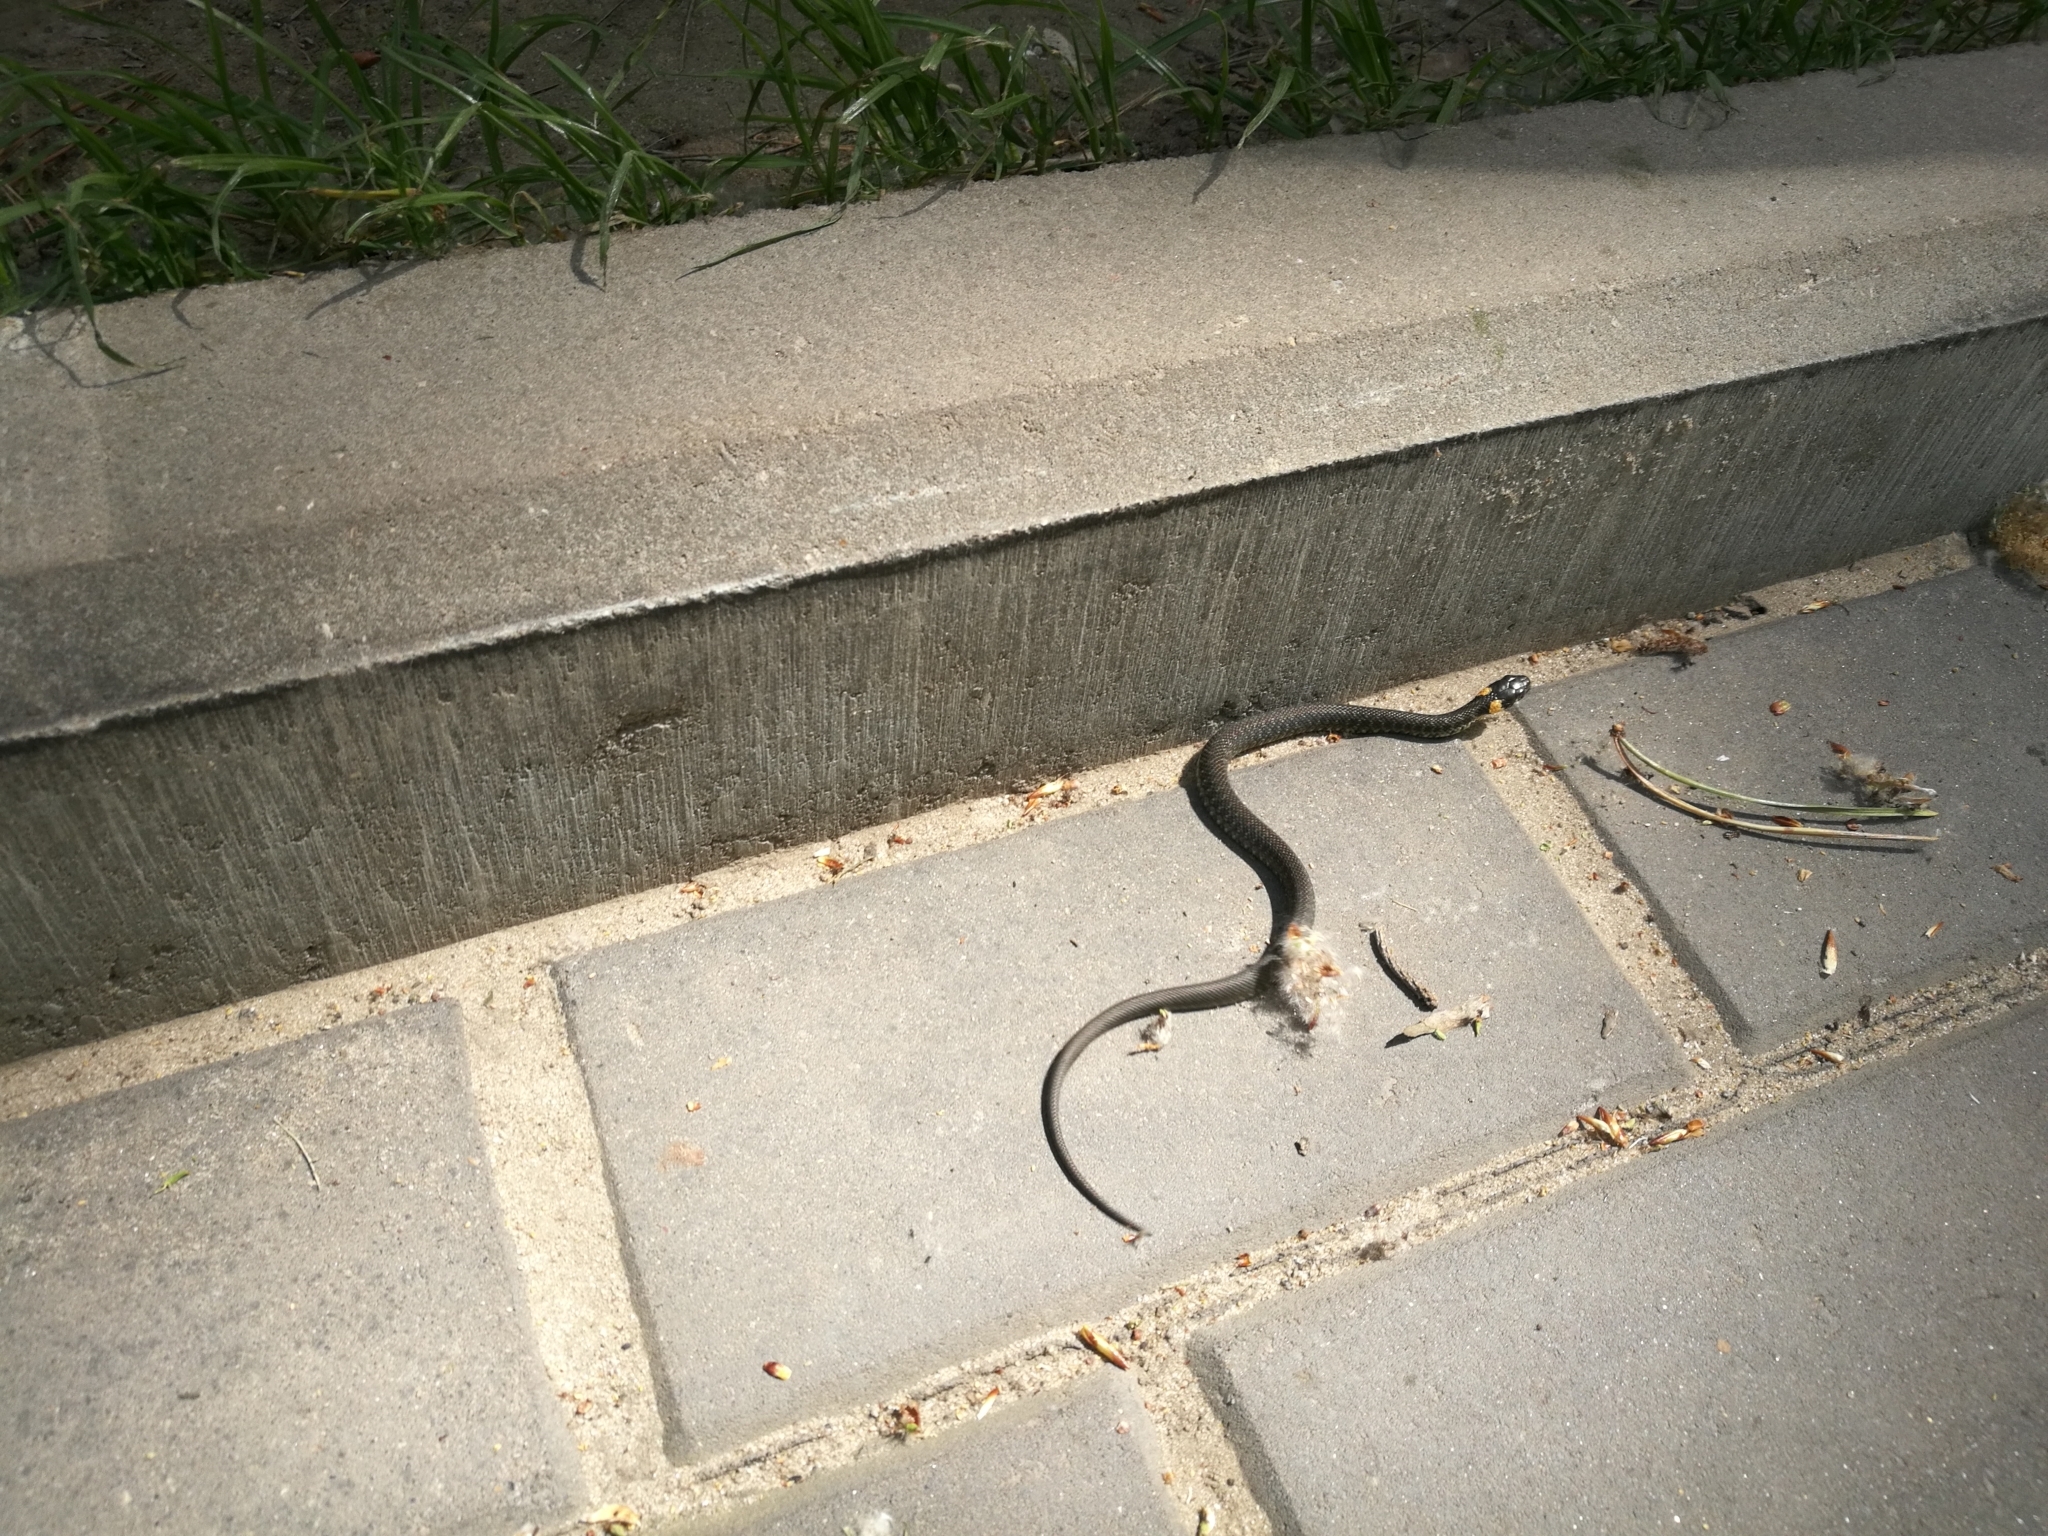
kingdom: Animalia
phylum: Chordata
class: Squamata
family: Colubridae
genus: Natrix
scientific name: Natrix natrix
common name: Grass snake
